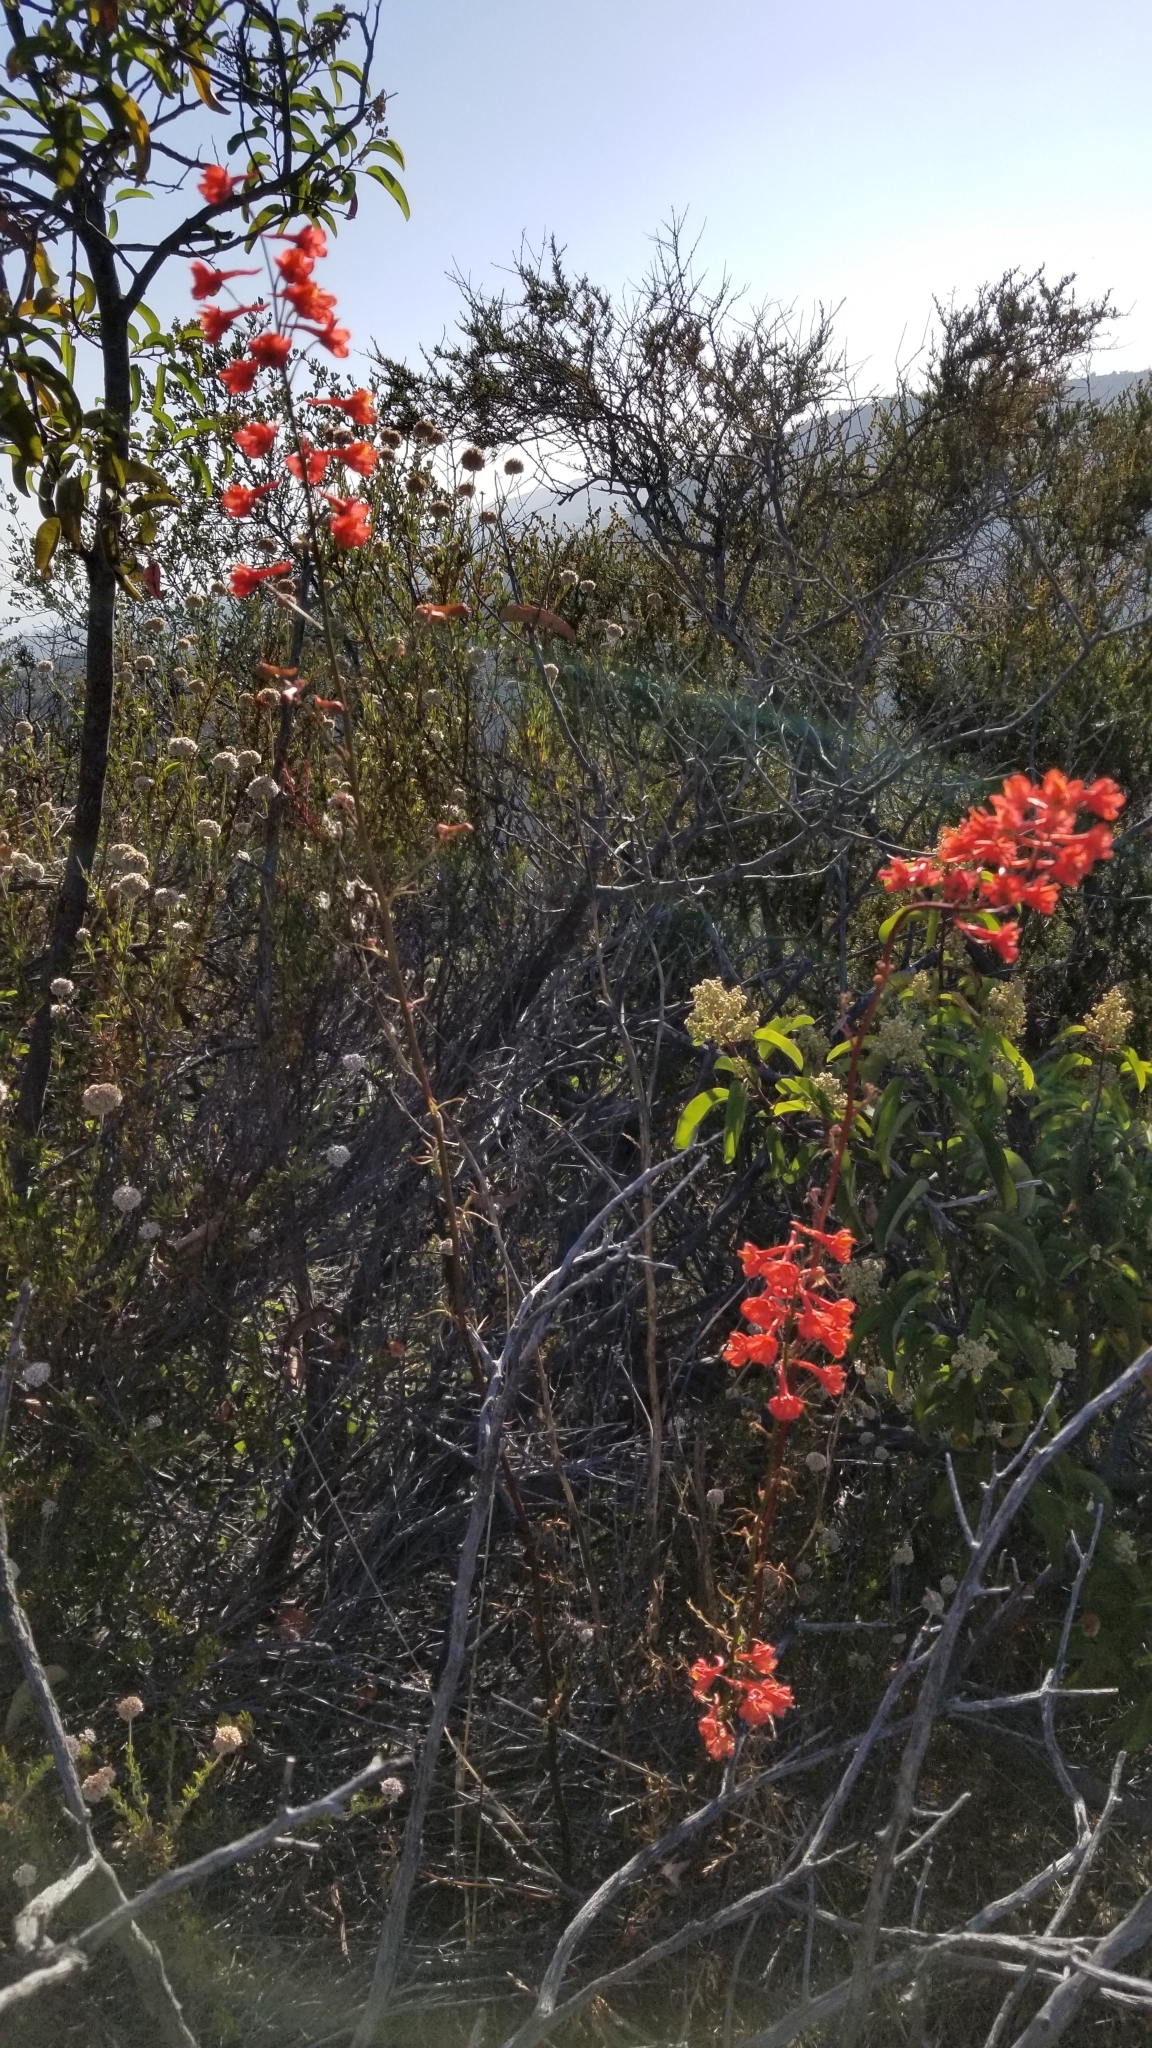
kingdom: Plantae
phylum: Tracheophyta
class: Magnoliopsida
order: Ranunculales
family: Ranunculaceae
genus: Delphinium
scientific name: Delphinium cardinale
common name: Scarlet larkspur
